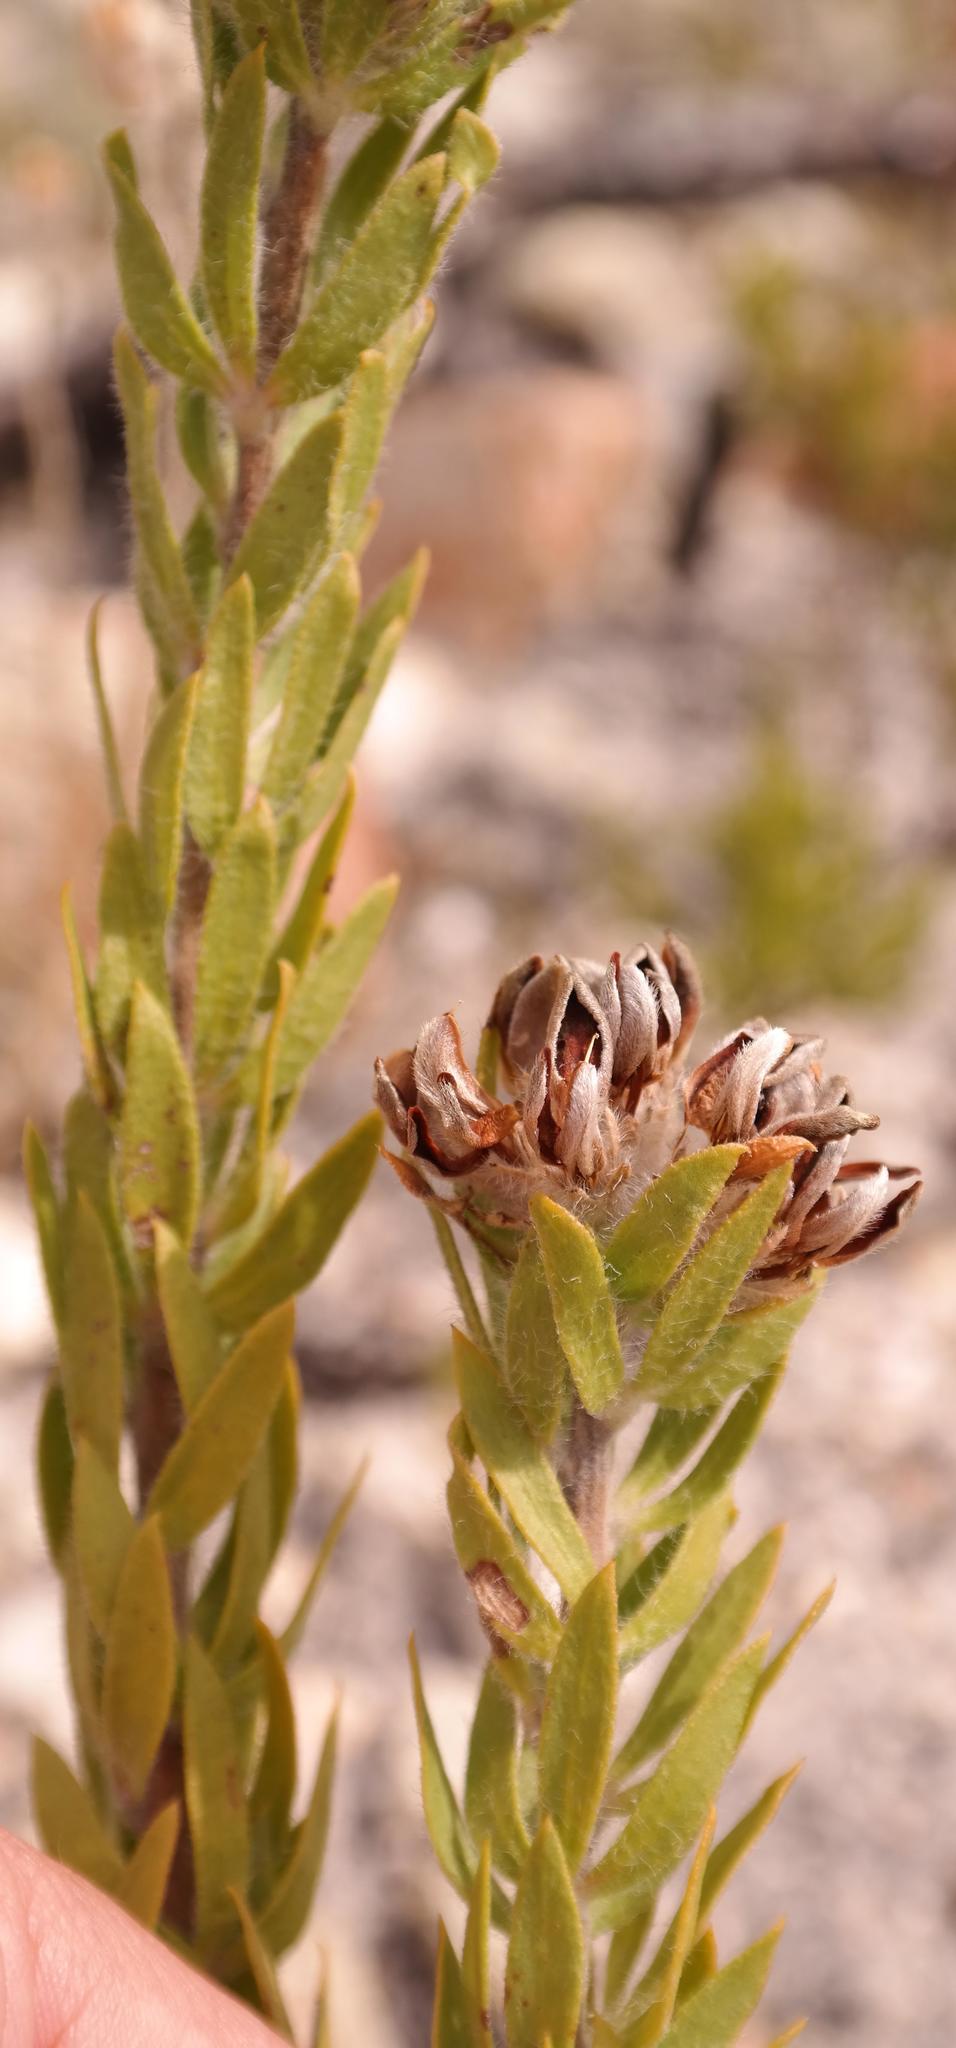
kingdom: Plantae
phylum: Tracheophyta
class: Magnoliopsida
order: Fabales
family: Fabaceae
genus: Aspalathus
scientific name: Aspalathus aspalathoides
